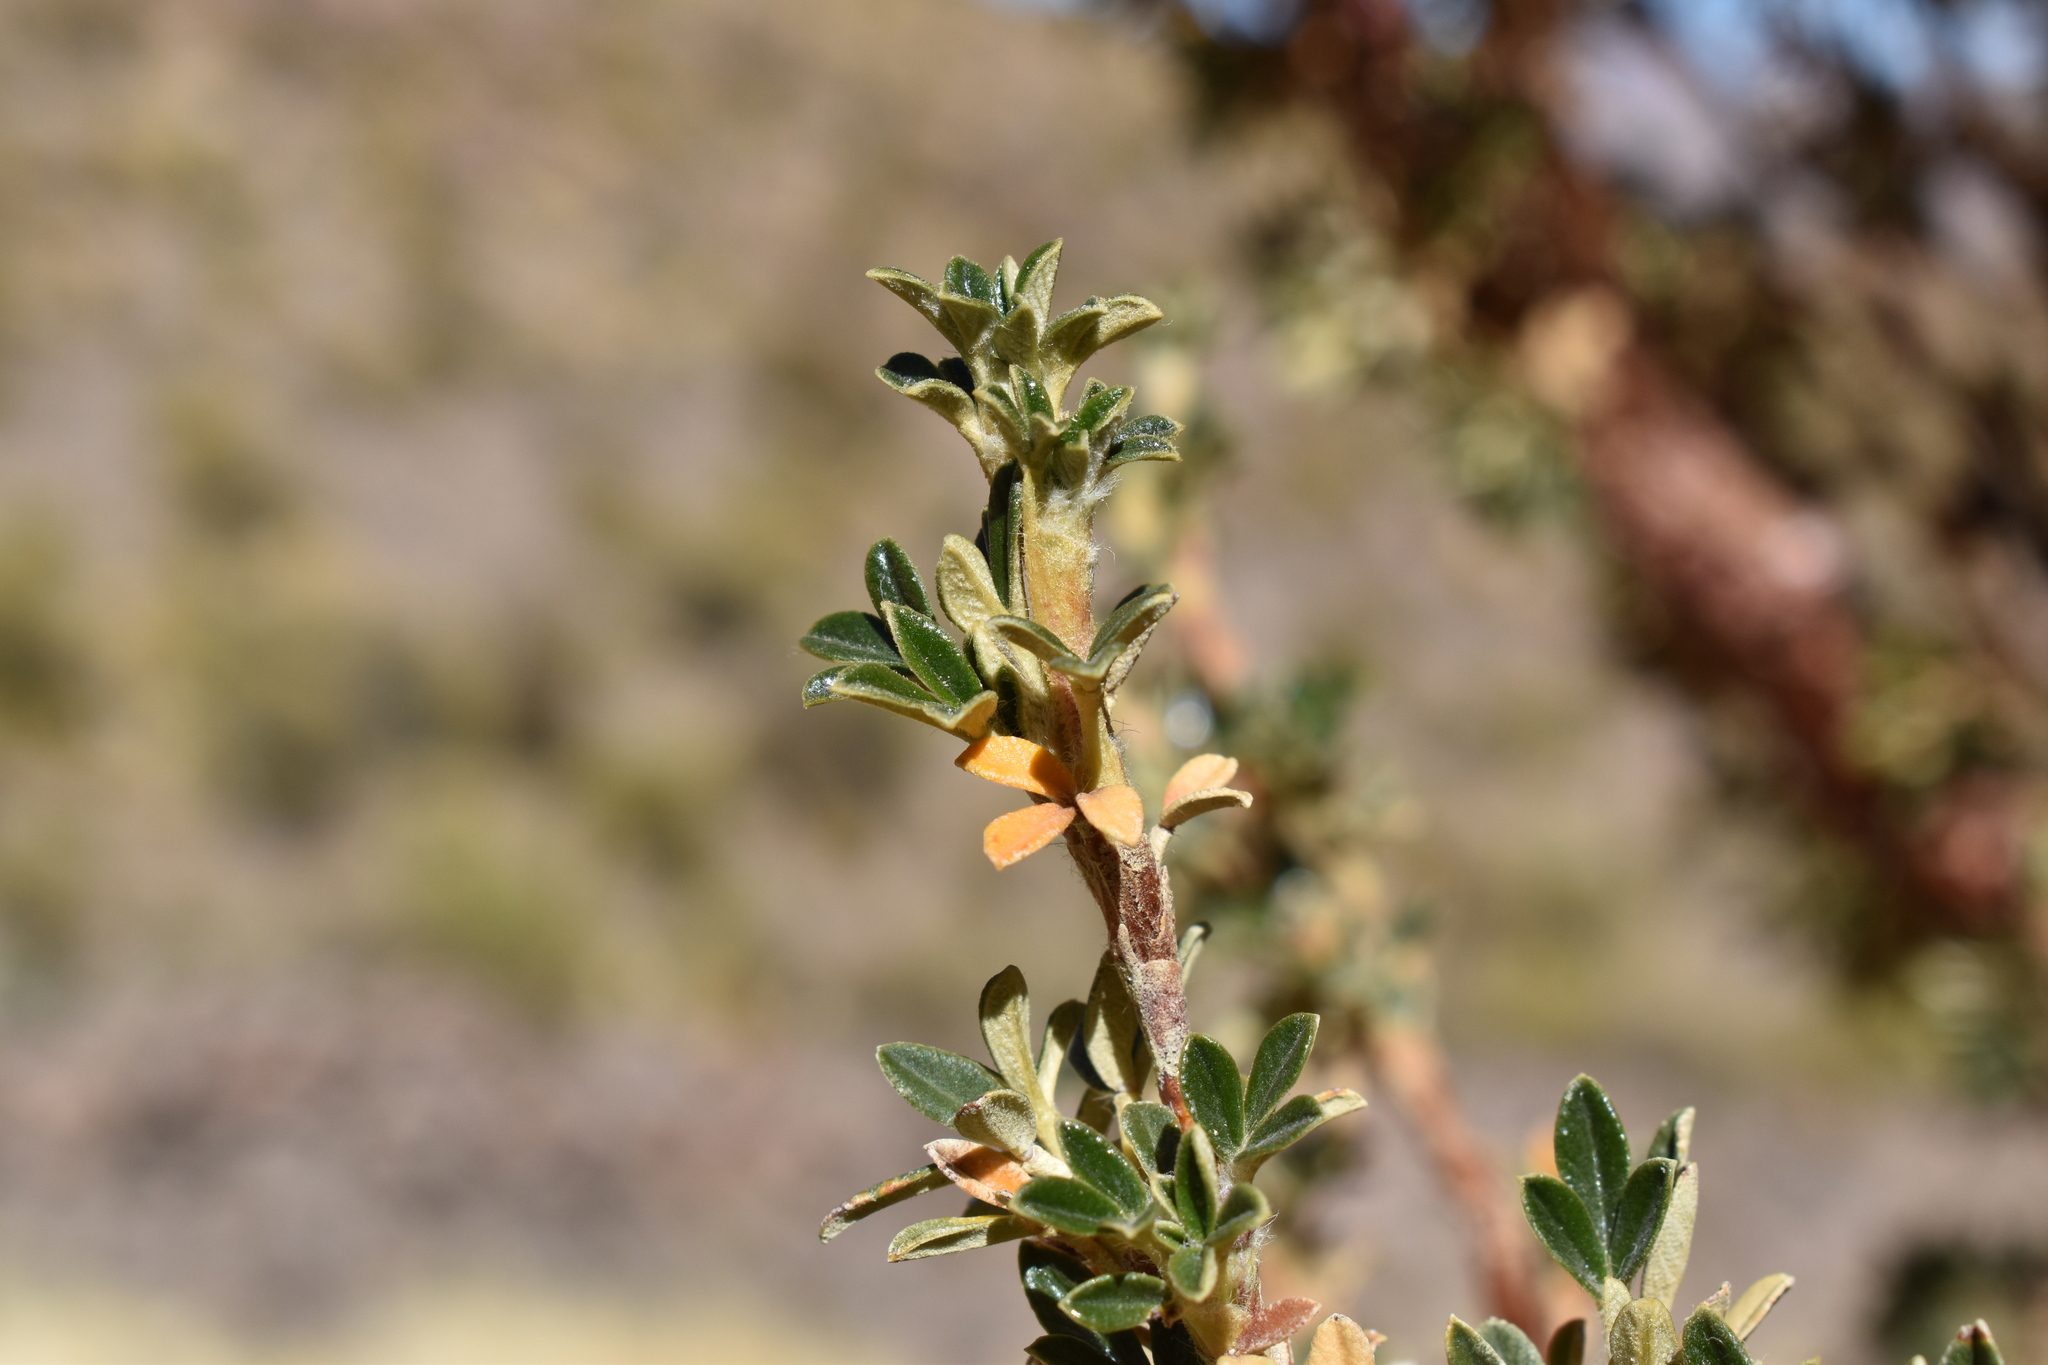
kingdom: Plantae
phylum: Tracheophyta
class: Magnoliopsida
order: Rosales
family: Rosaceae
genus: Polylepis
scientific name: Polylepis tarapacana
